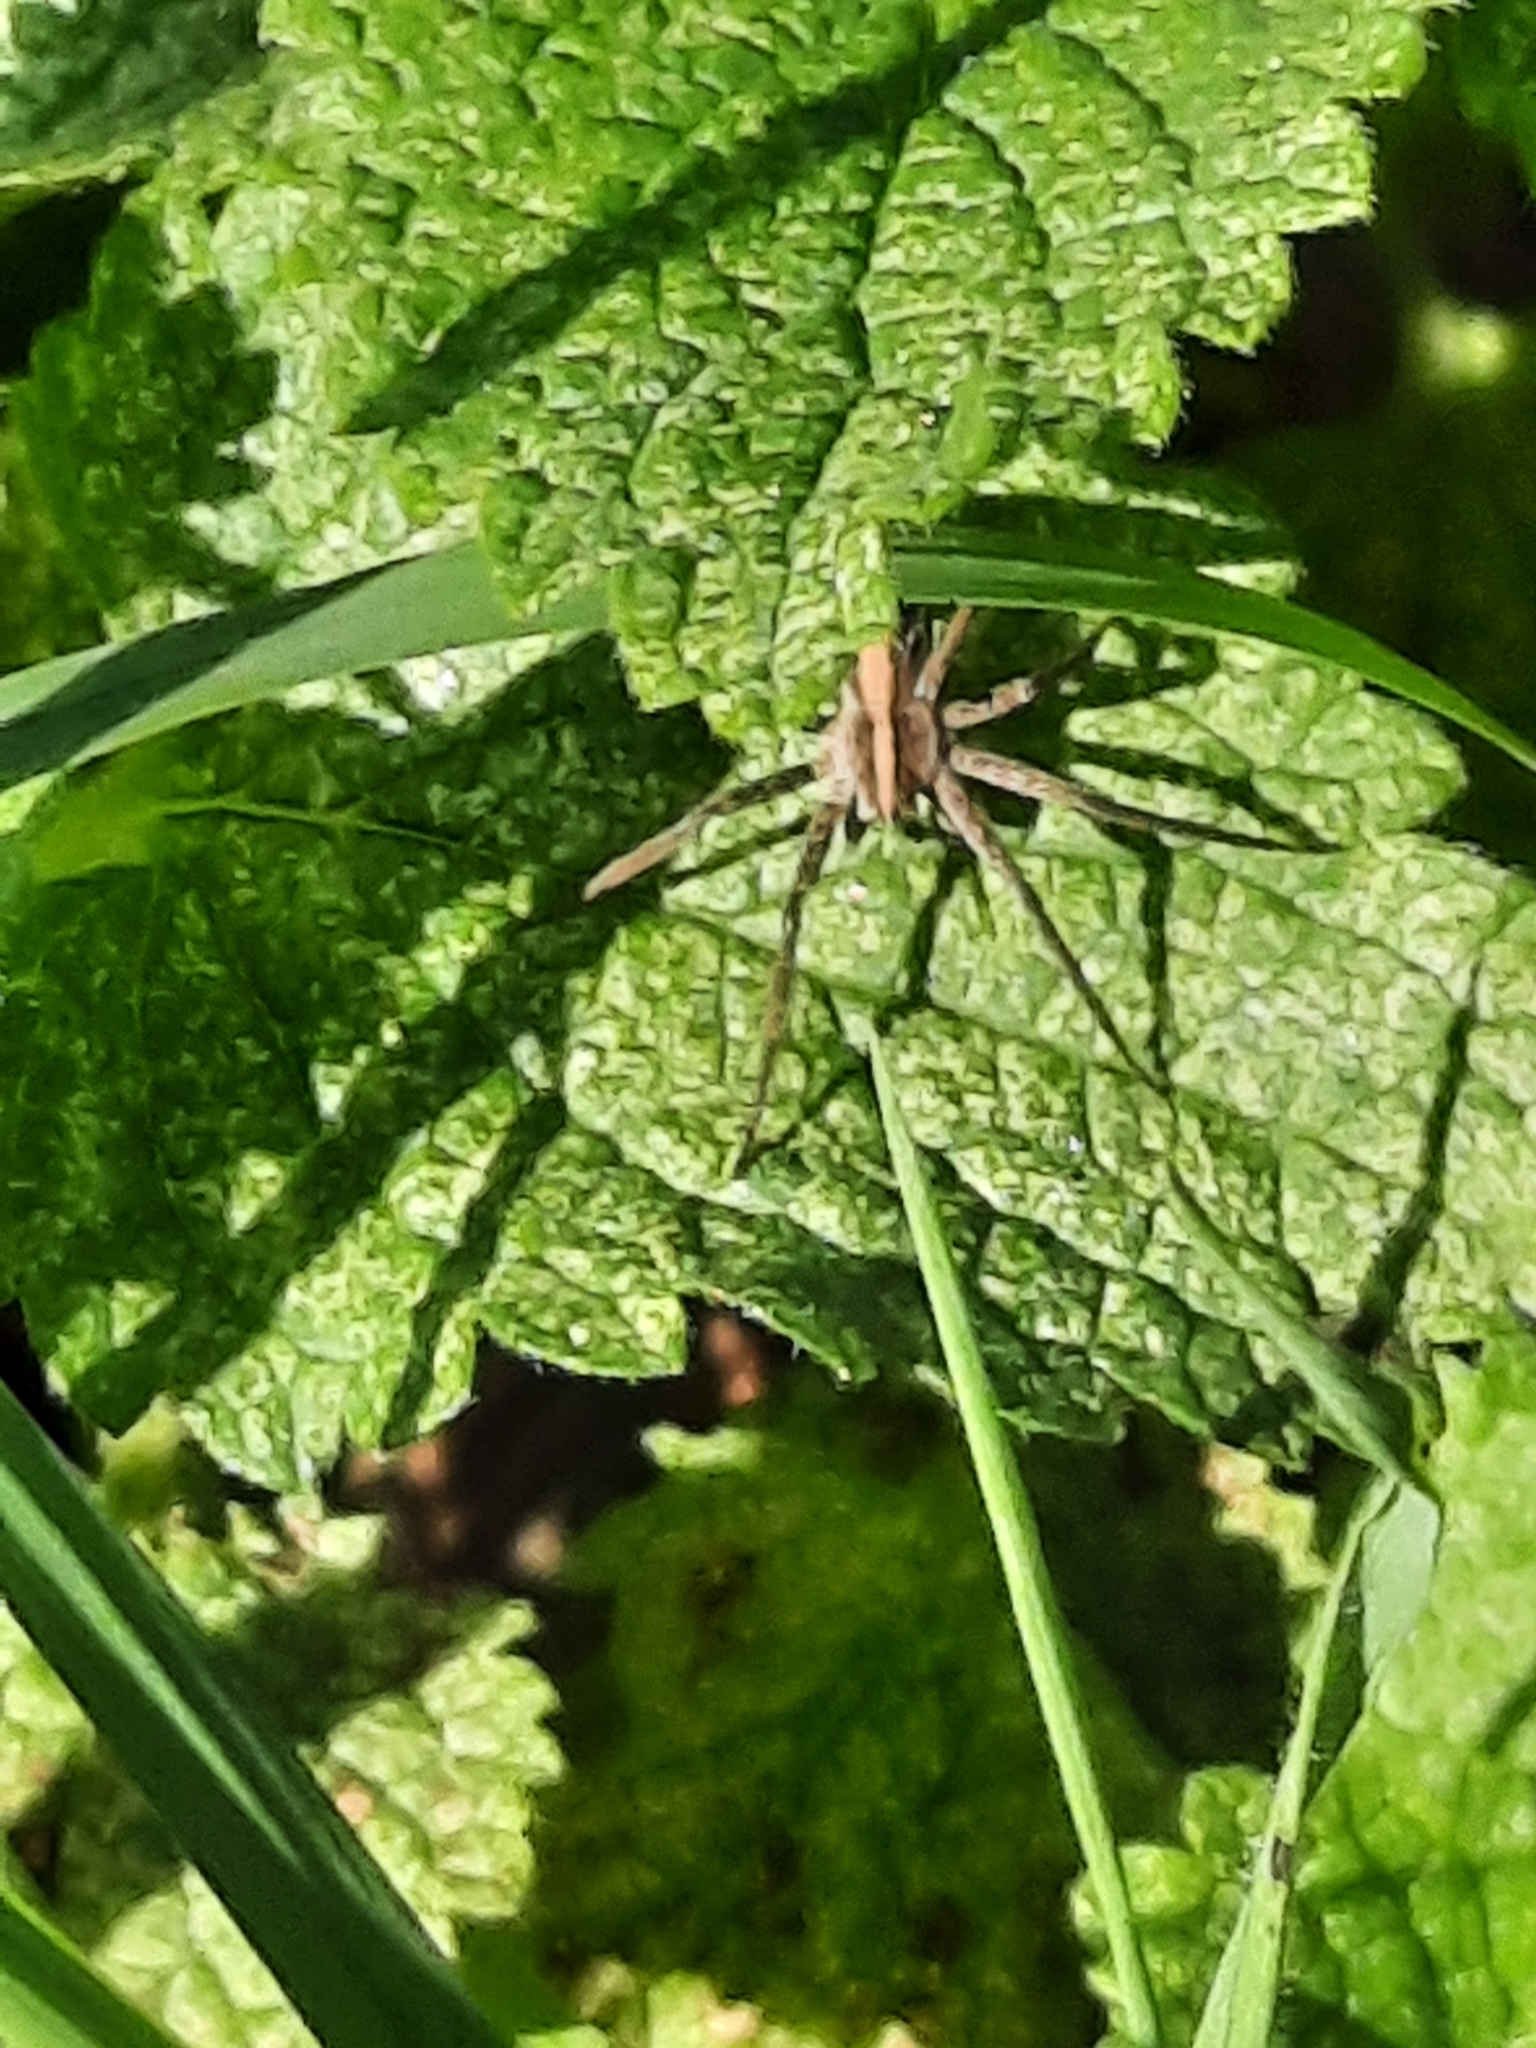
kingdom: Animalia
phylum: Arthropoda
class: Arachnida
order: Araneae
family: Pisauridae
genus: Pisaura
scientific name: Pisaura mirabilis
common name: Tent spider
